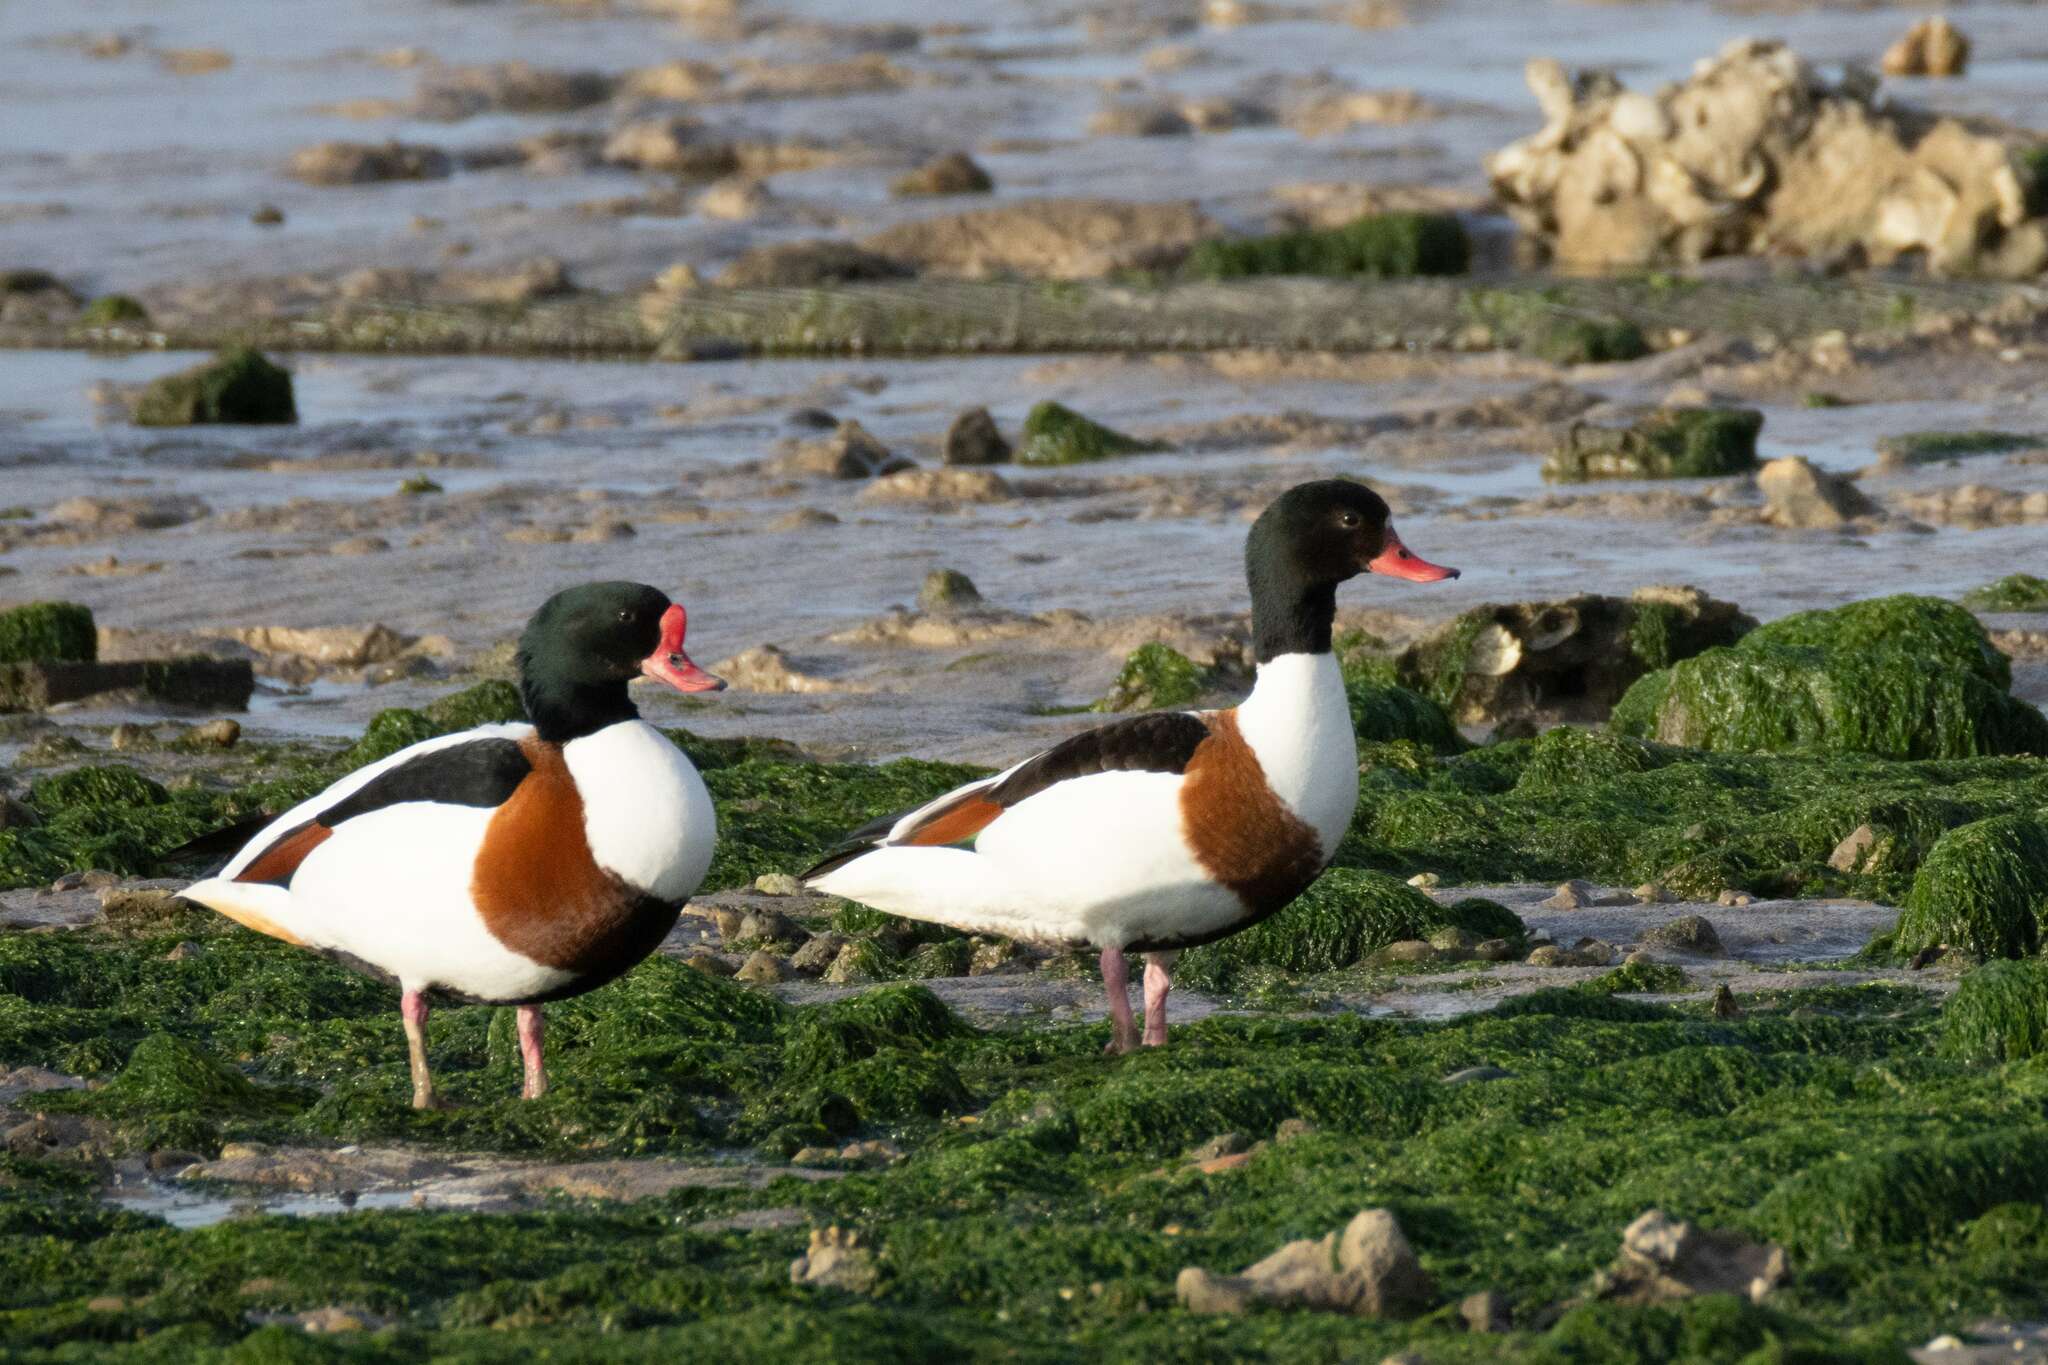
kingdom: Animalia
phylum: Chordata
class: Aves
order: Anseriformes
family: Anatidae
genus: Tadorna
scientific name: Tadorna tadorna
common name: Common shelduck
